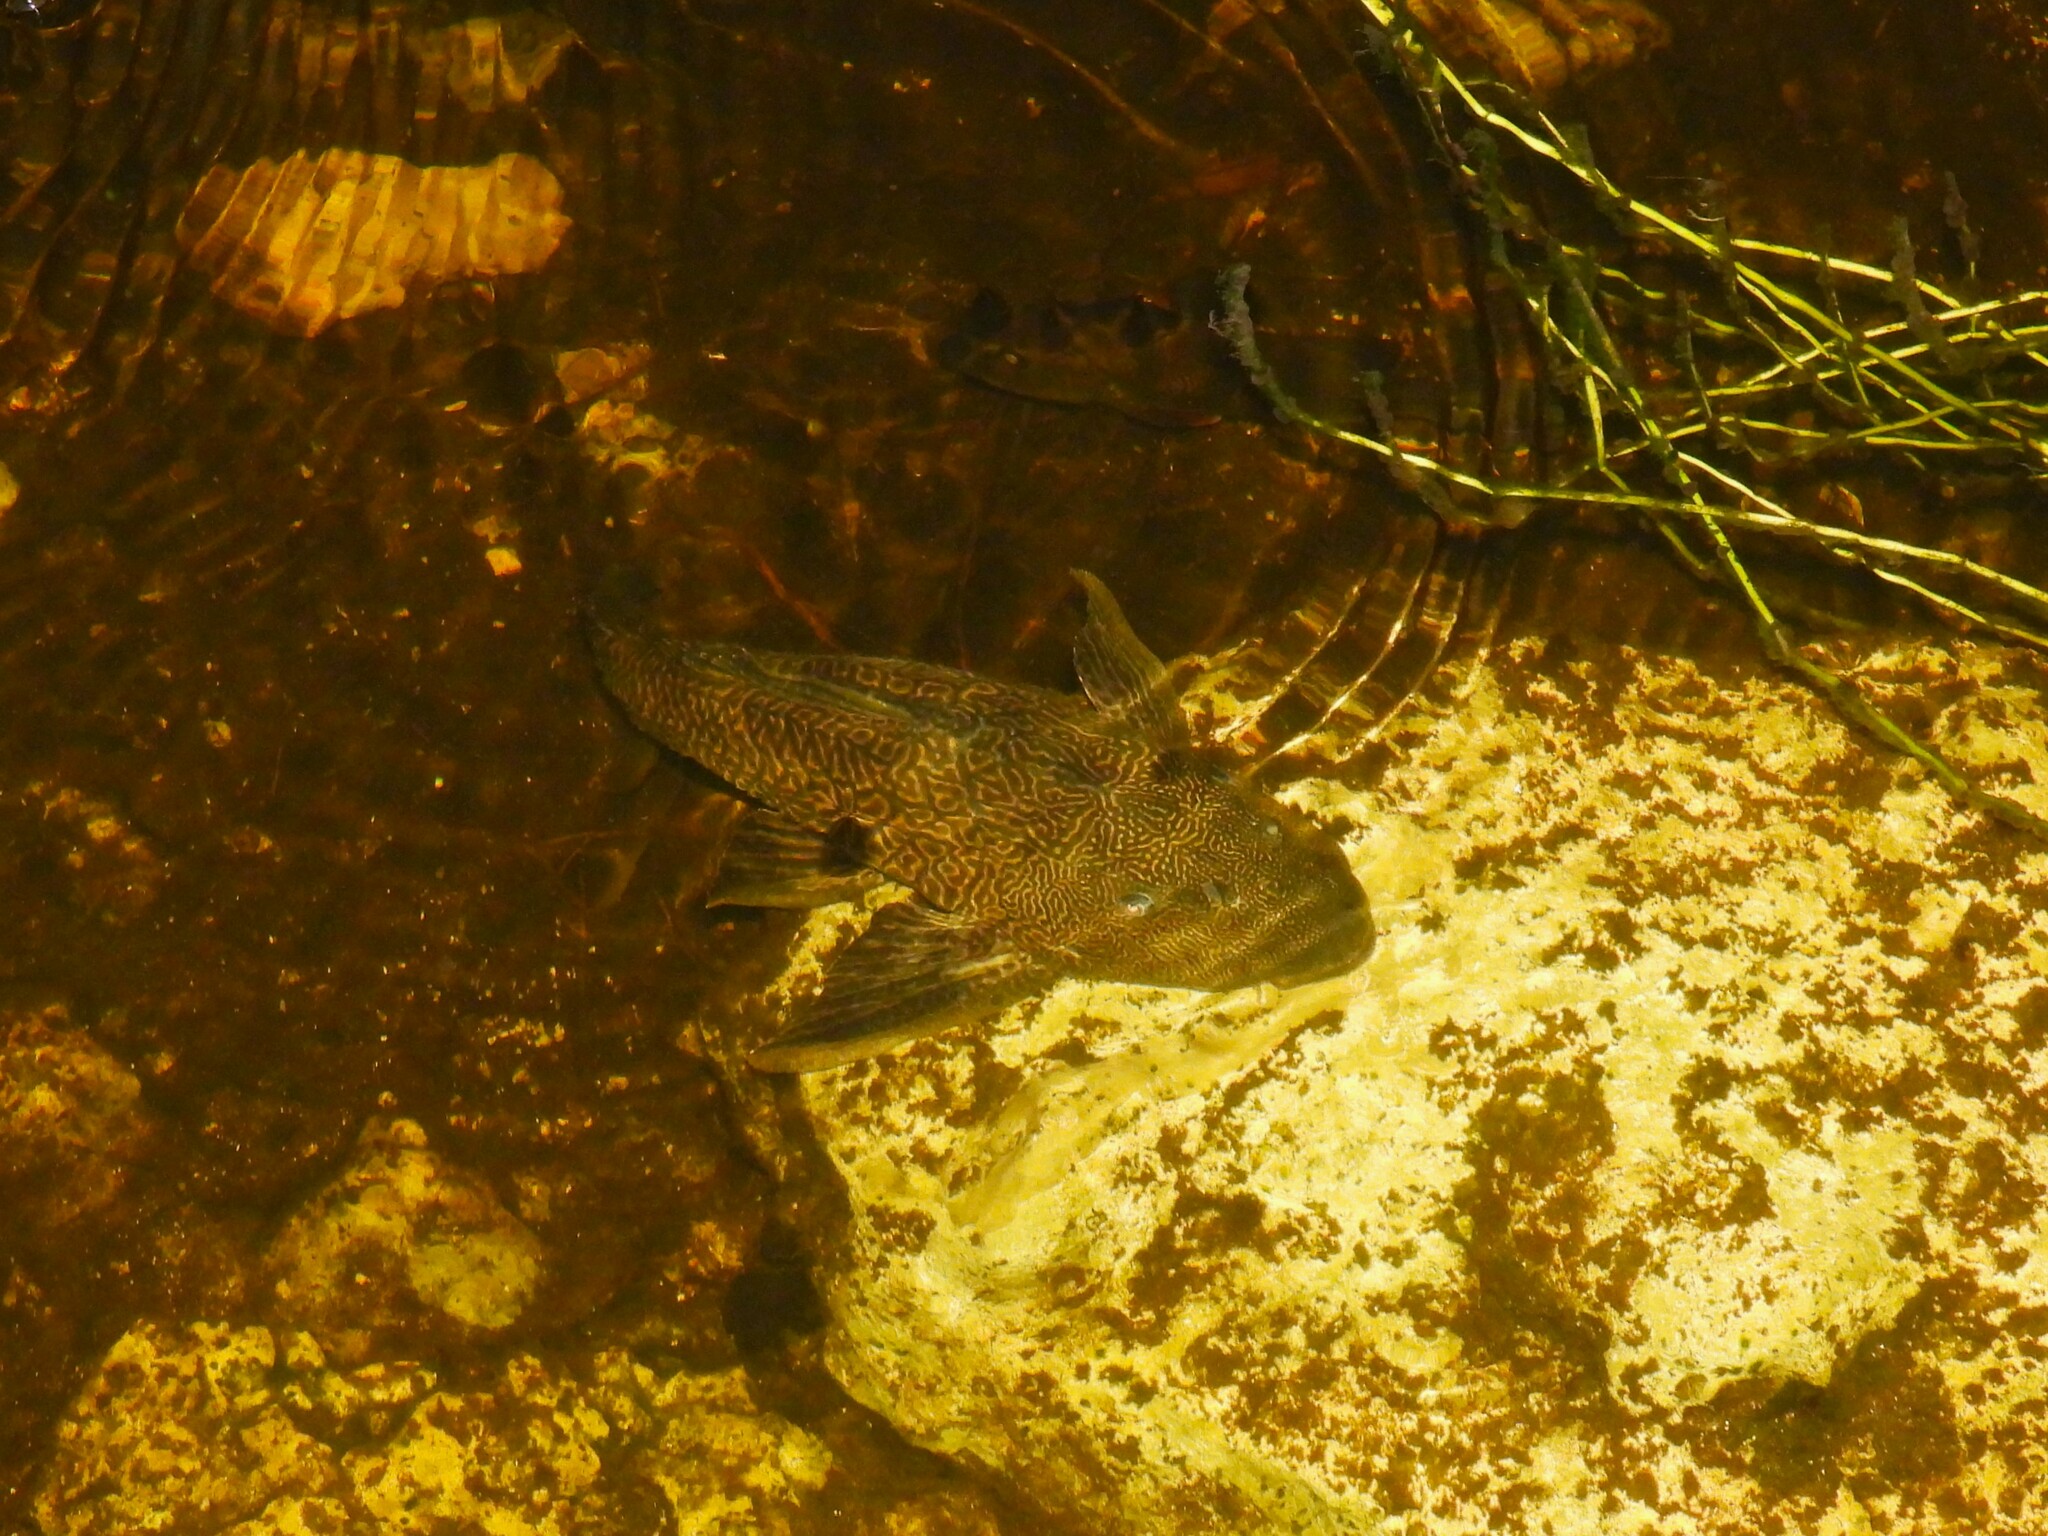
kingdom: Animalia
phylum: Chordata
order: Siluriformes
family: Loricariidae
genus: Pterygoplichthys
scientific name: Pterygoplichthys
